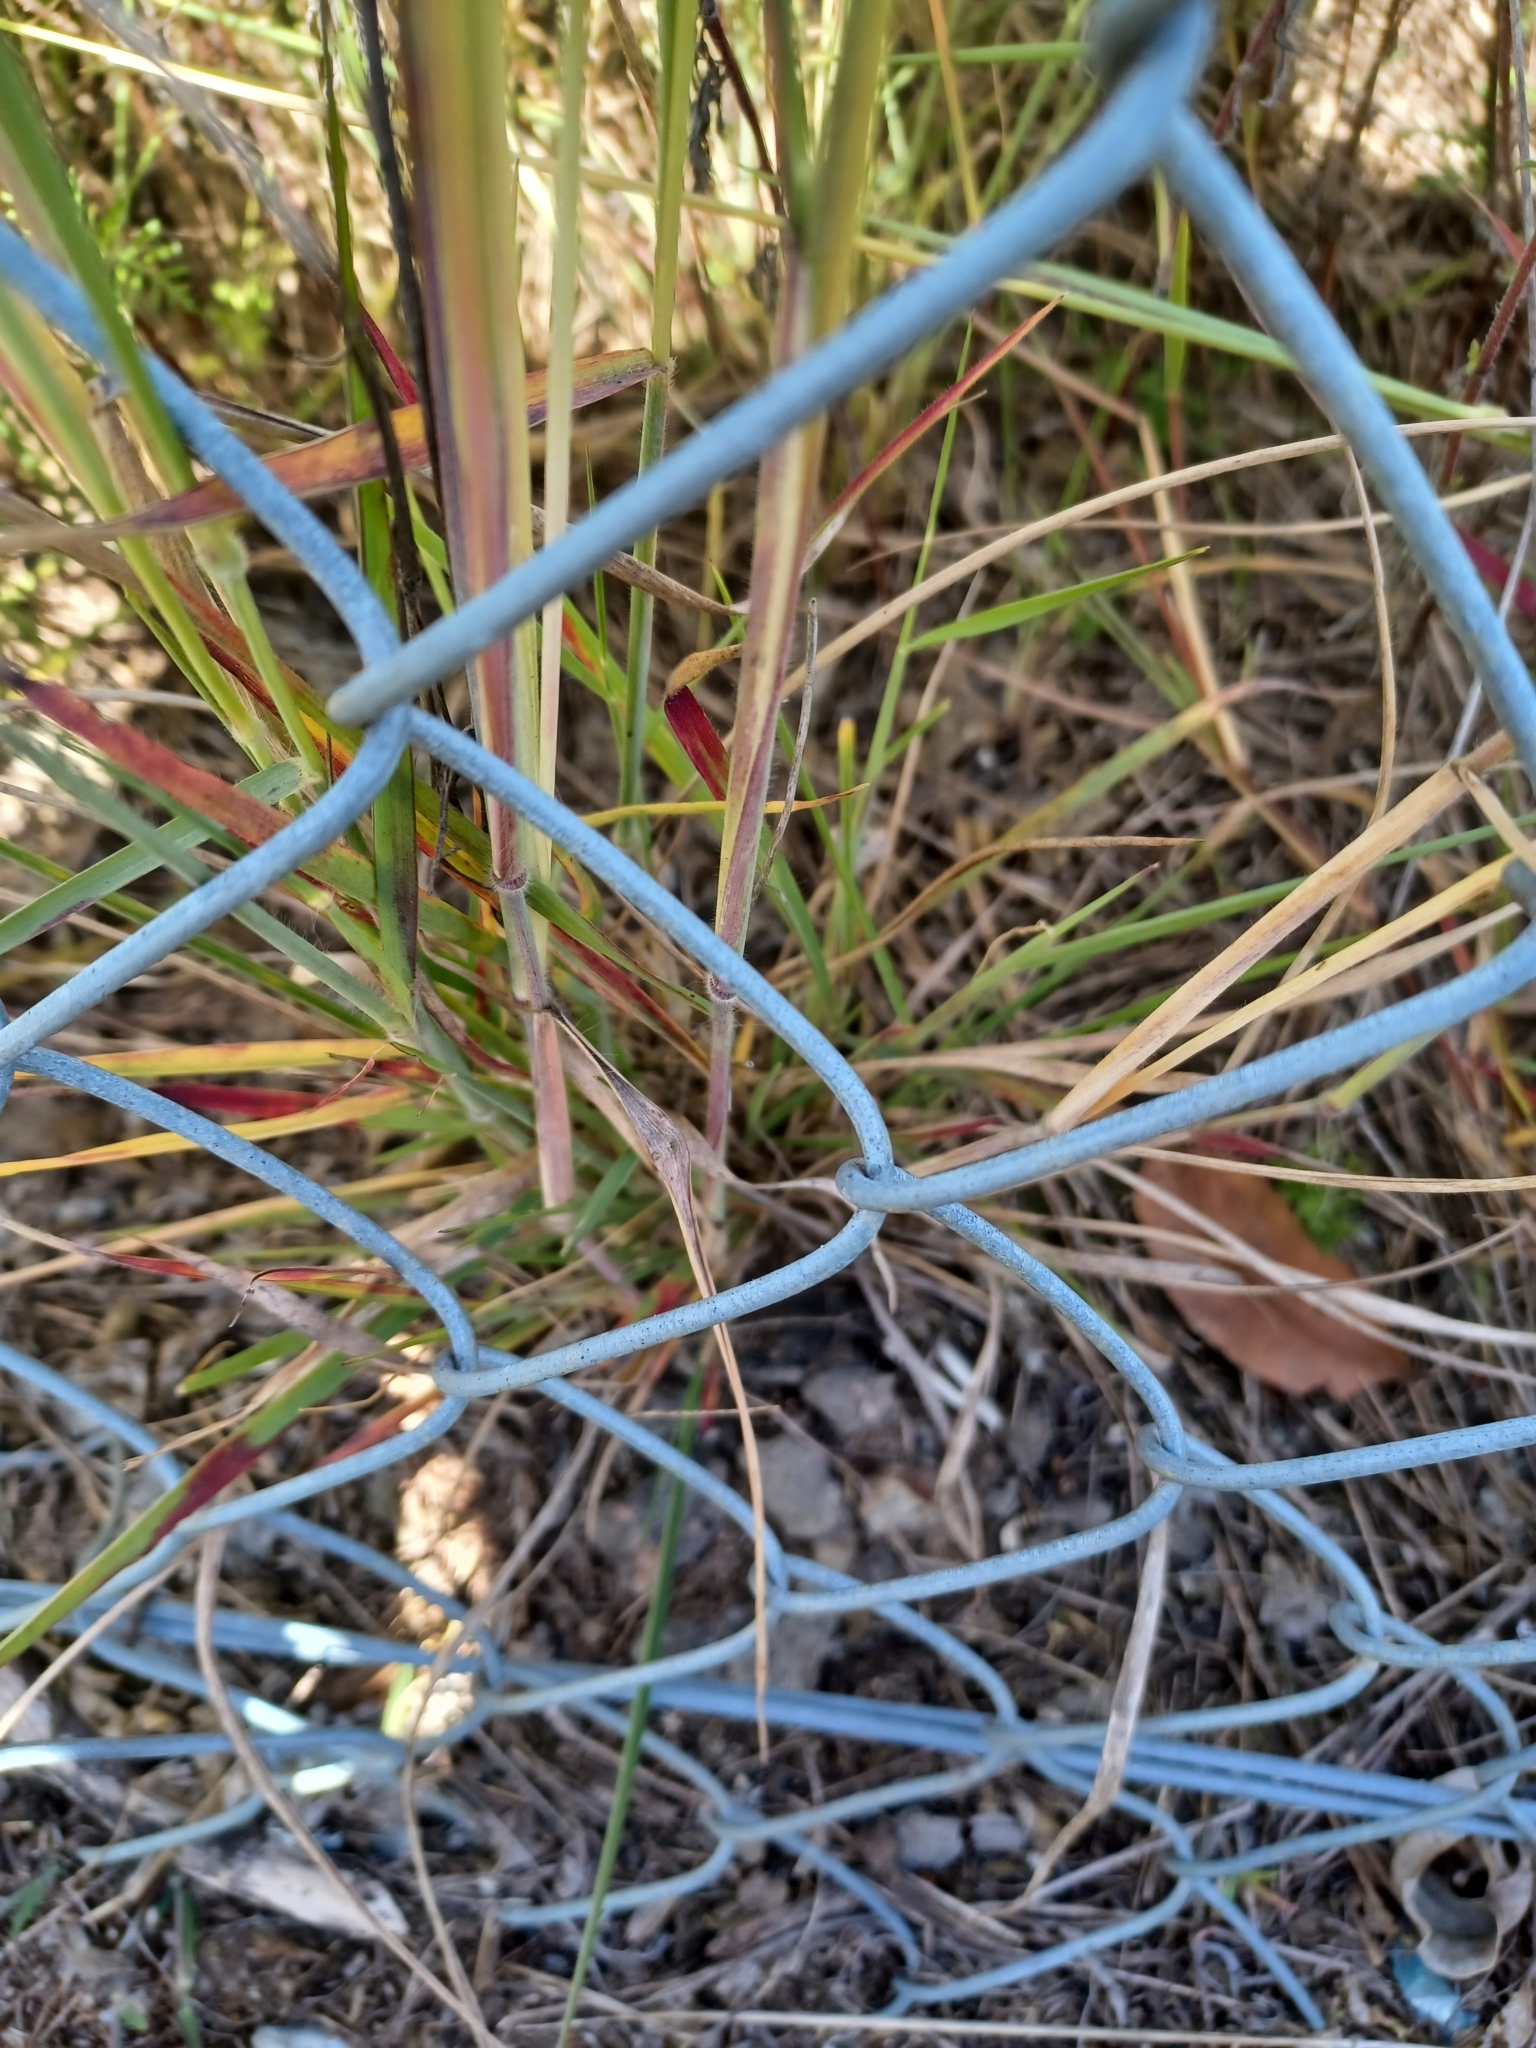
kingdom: Plantae
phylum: Tracheophyta
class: Liliopsida
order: Poales
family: Poaceae
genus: Melinis
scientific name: Melinis repens
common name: Rose natal grass
